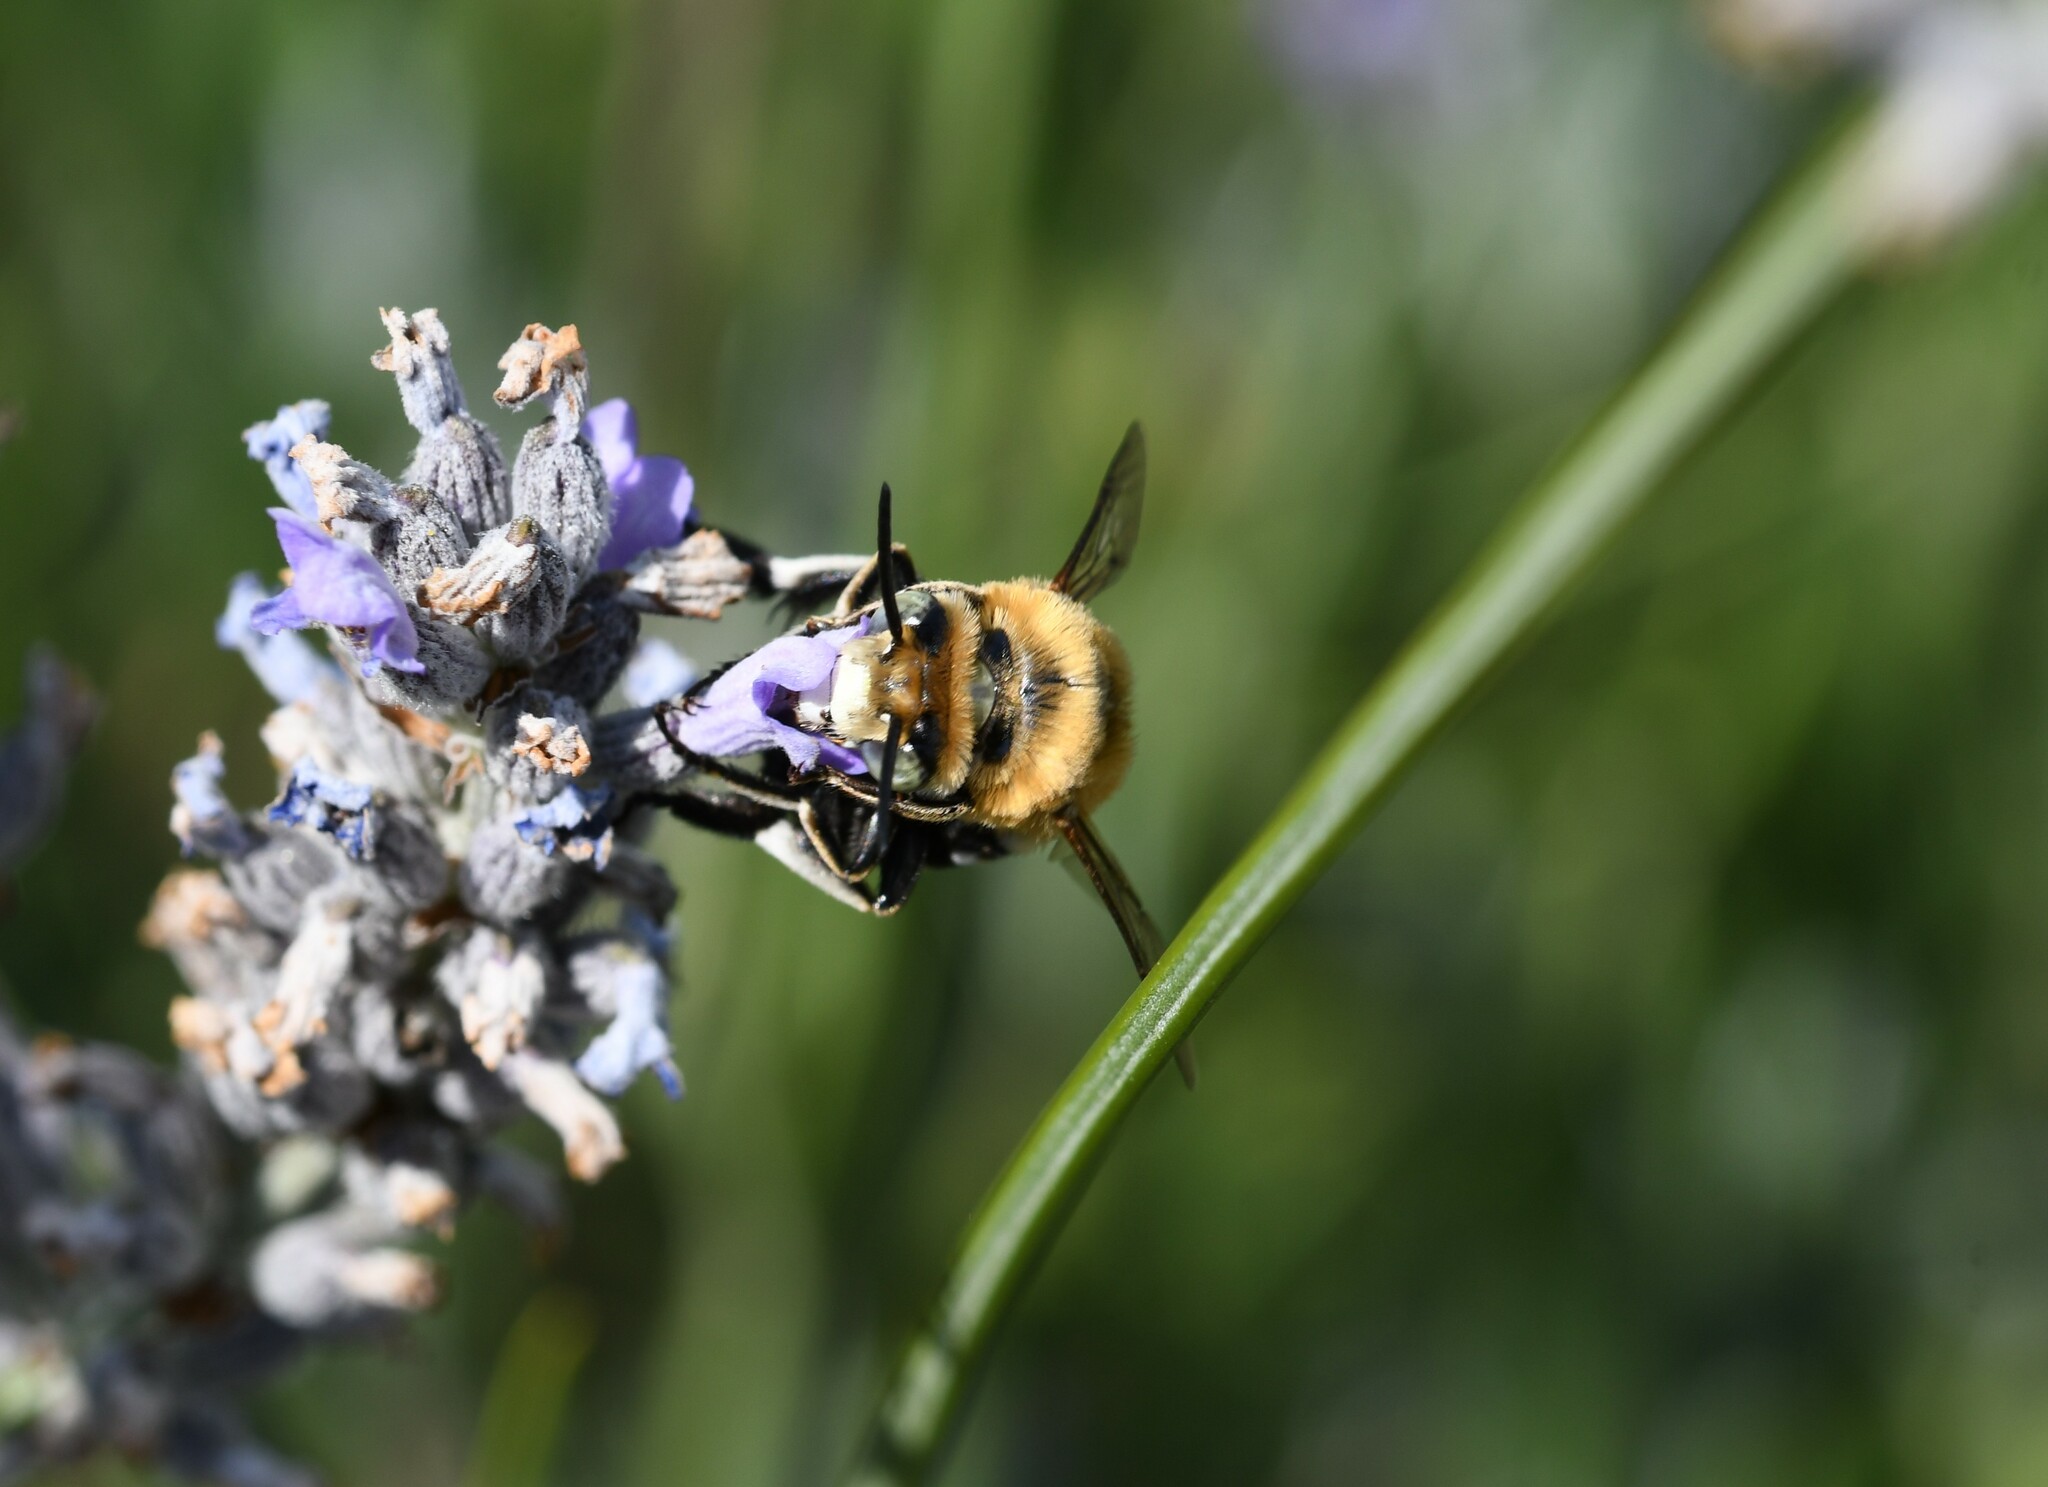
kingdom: Animalia
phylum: Arthropoda
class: Insecta
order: Hymenoptera
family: Apidae
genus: Amegilla
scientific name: Amegilla quadrifasciata
